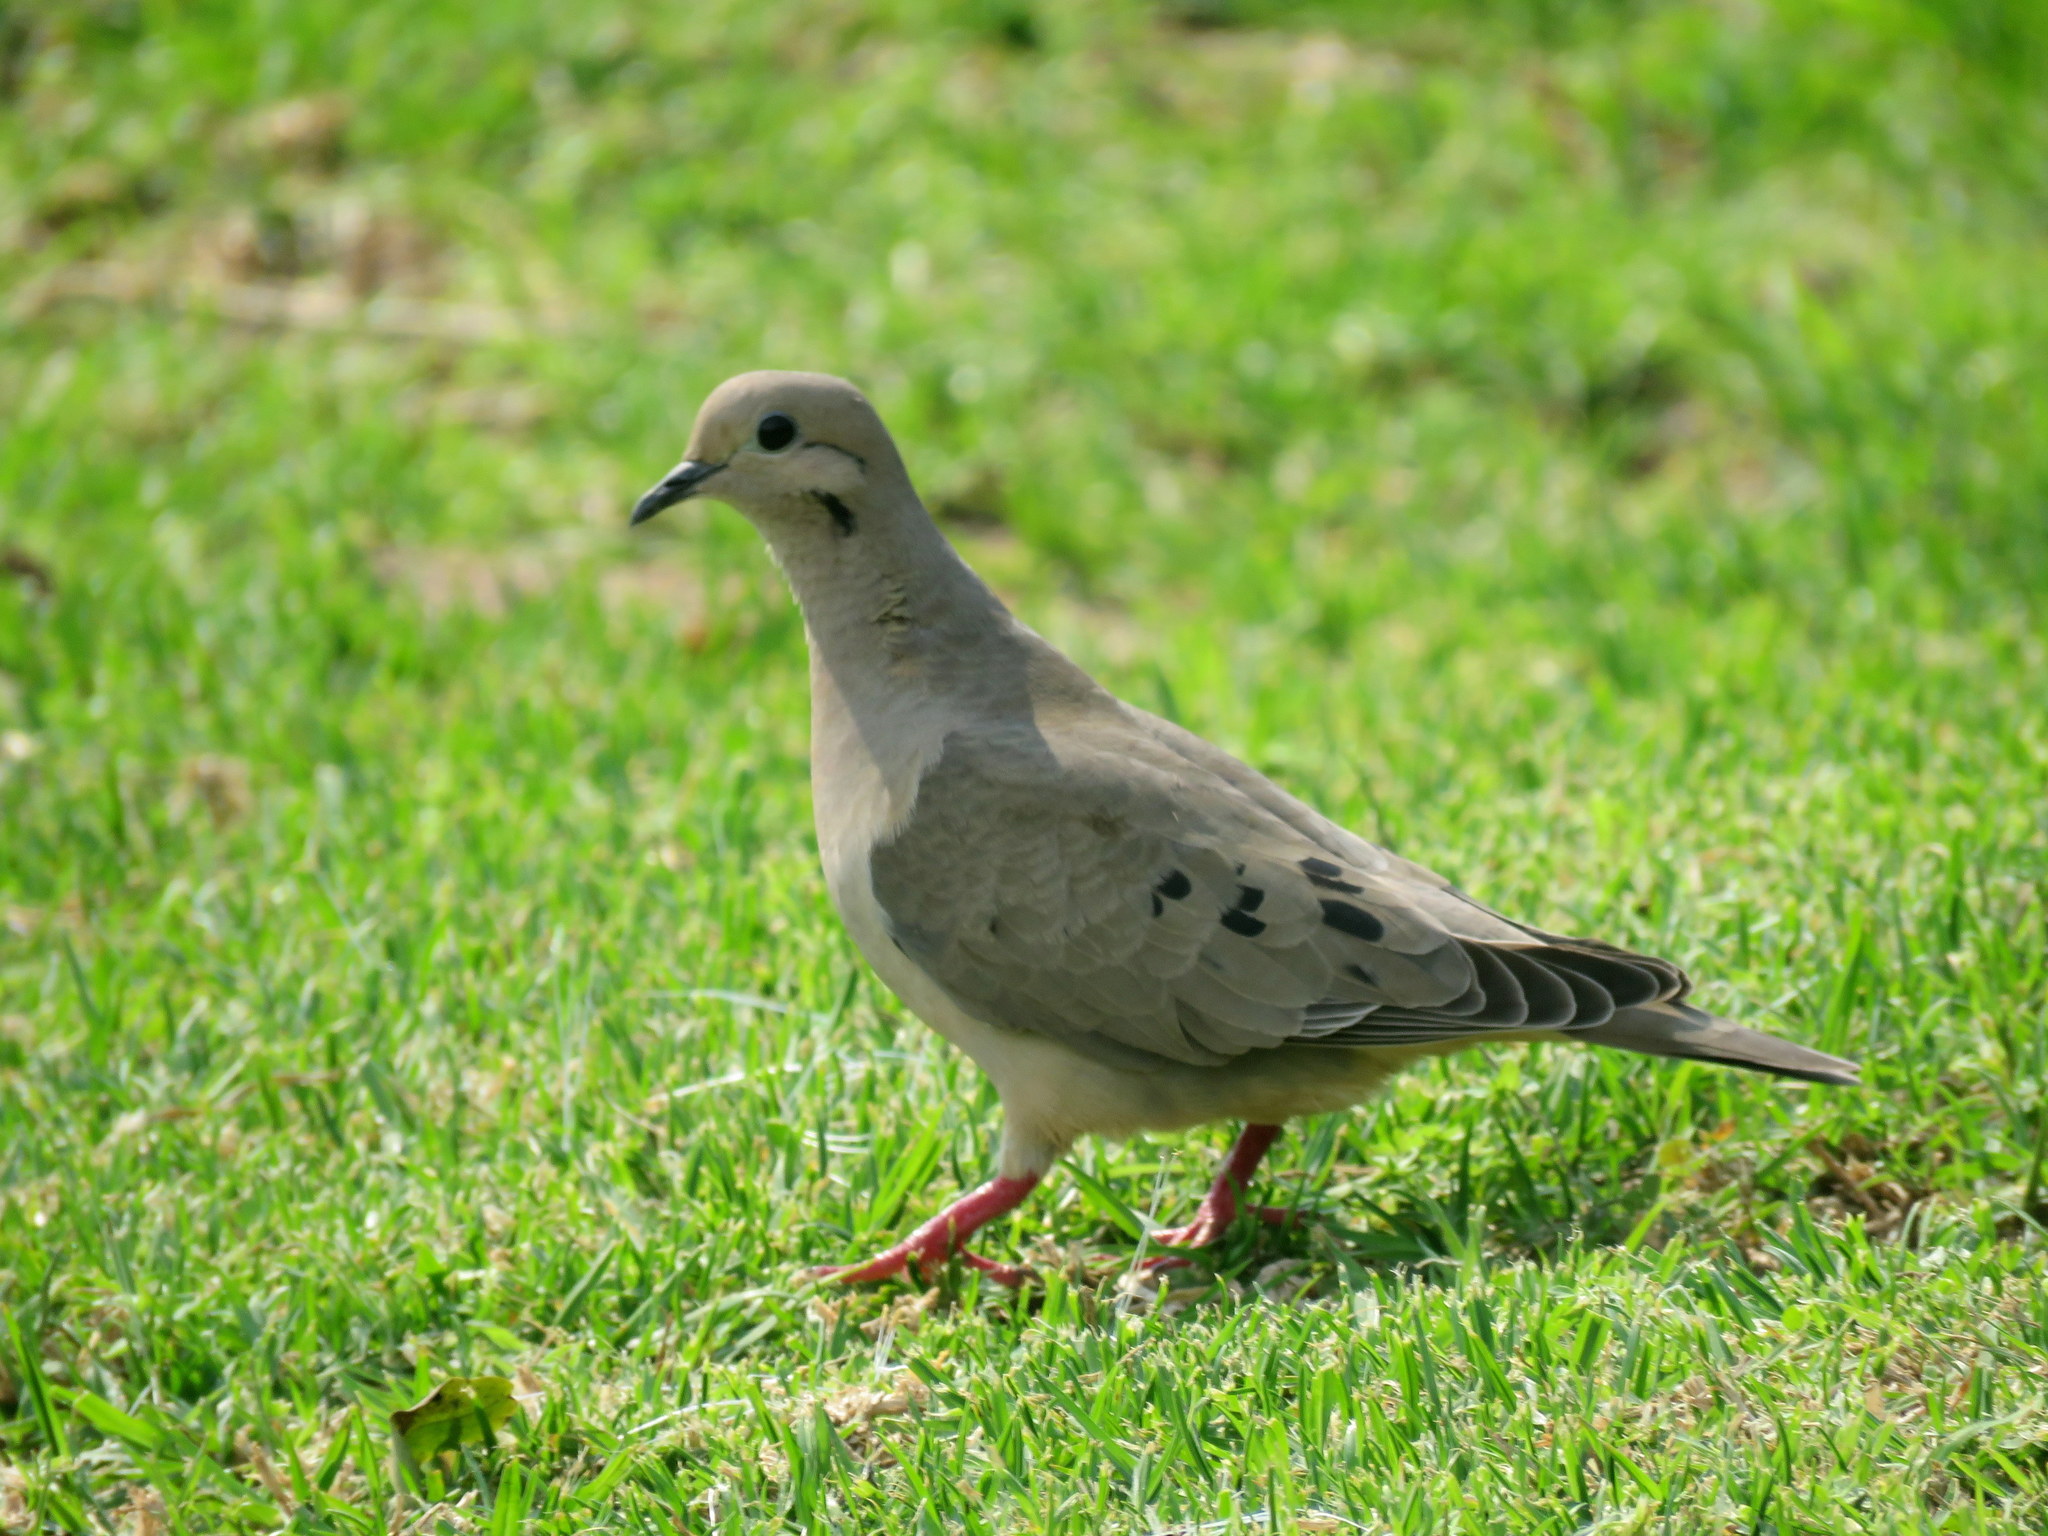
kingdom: Animalia
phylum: Chordata
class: Aves
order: Columbiformes
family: Columbidae
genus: Zenaida
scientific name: Zenaida auriculata
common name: Eared dove
